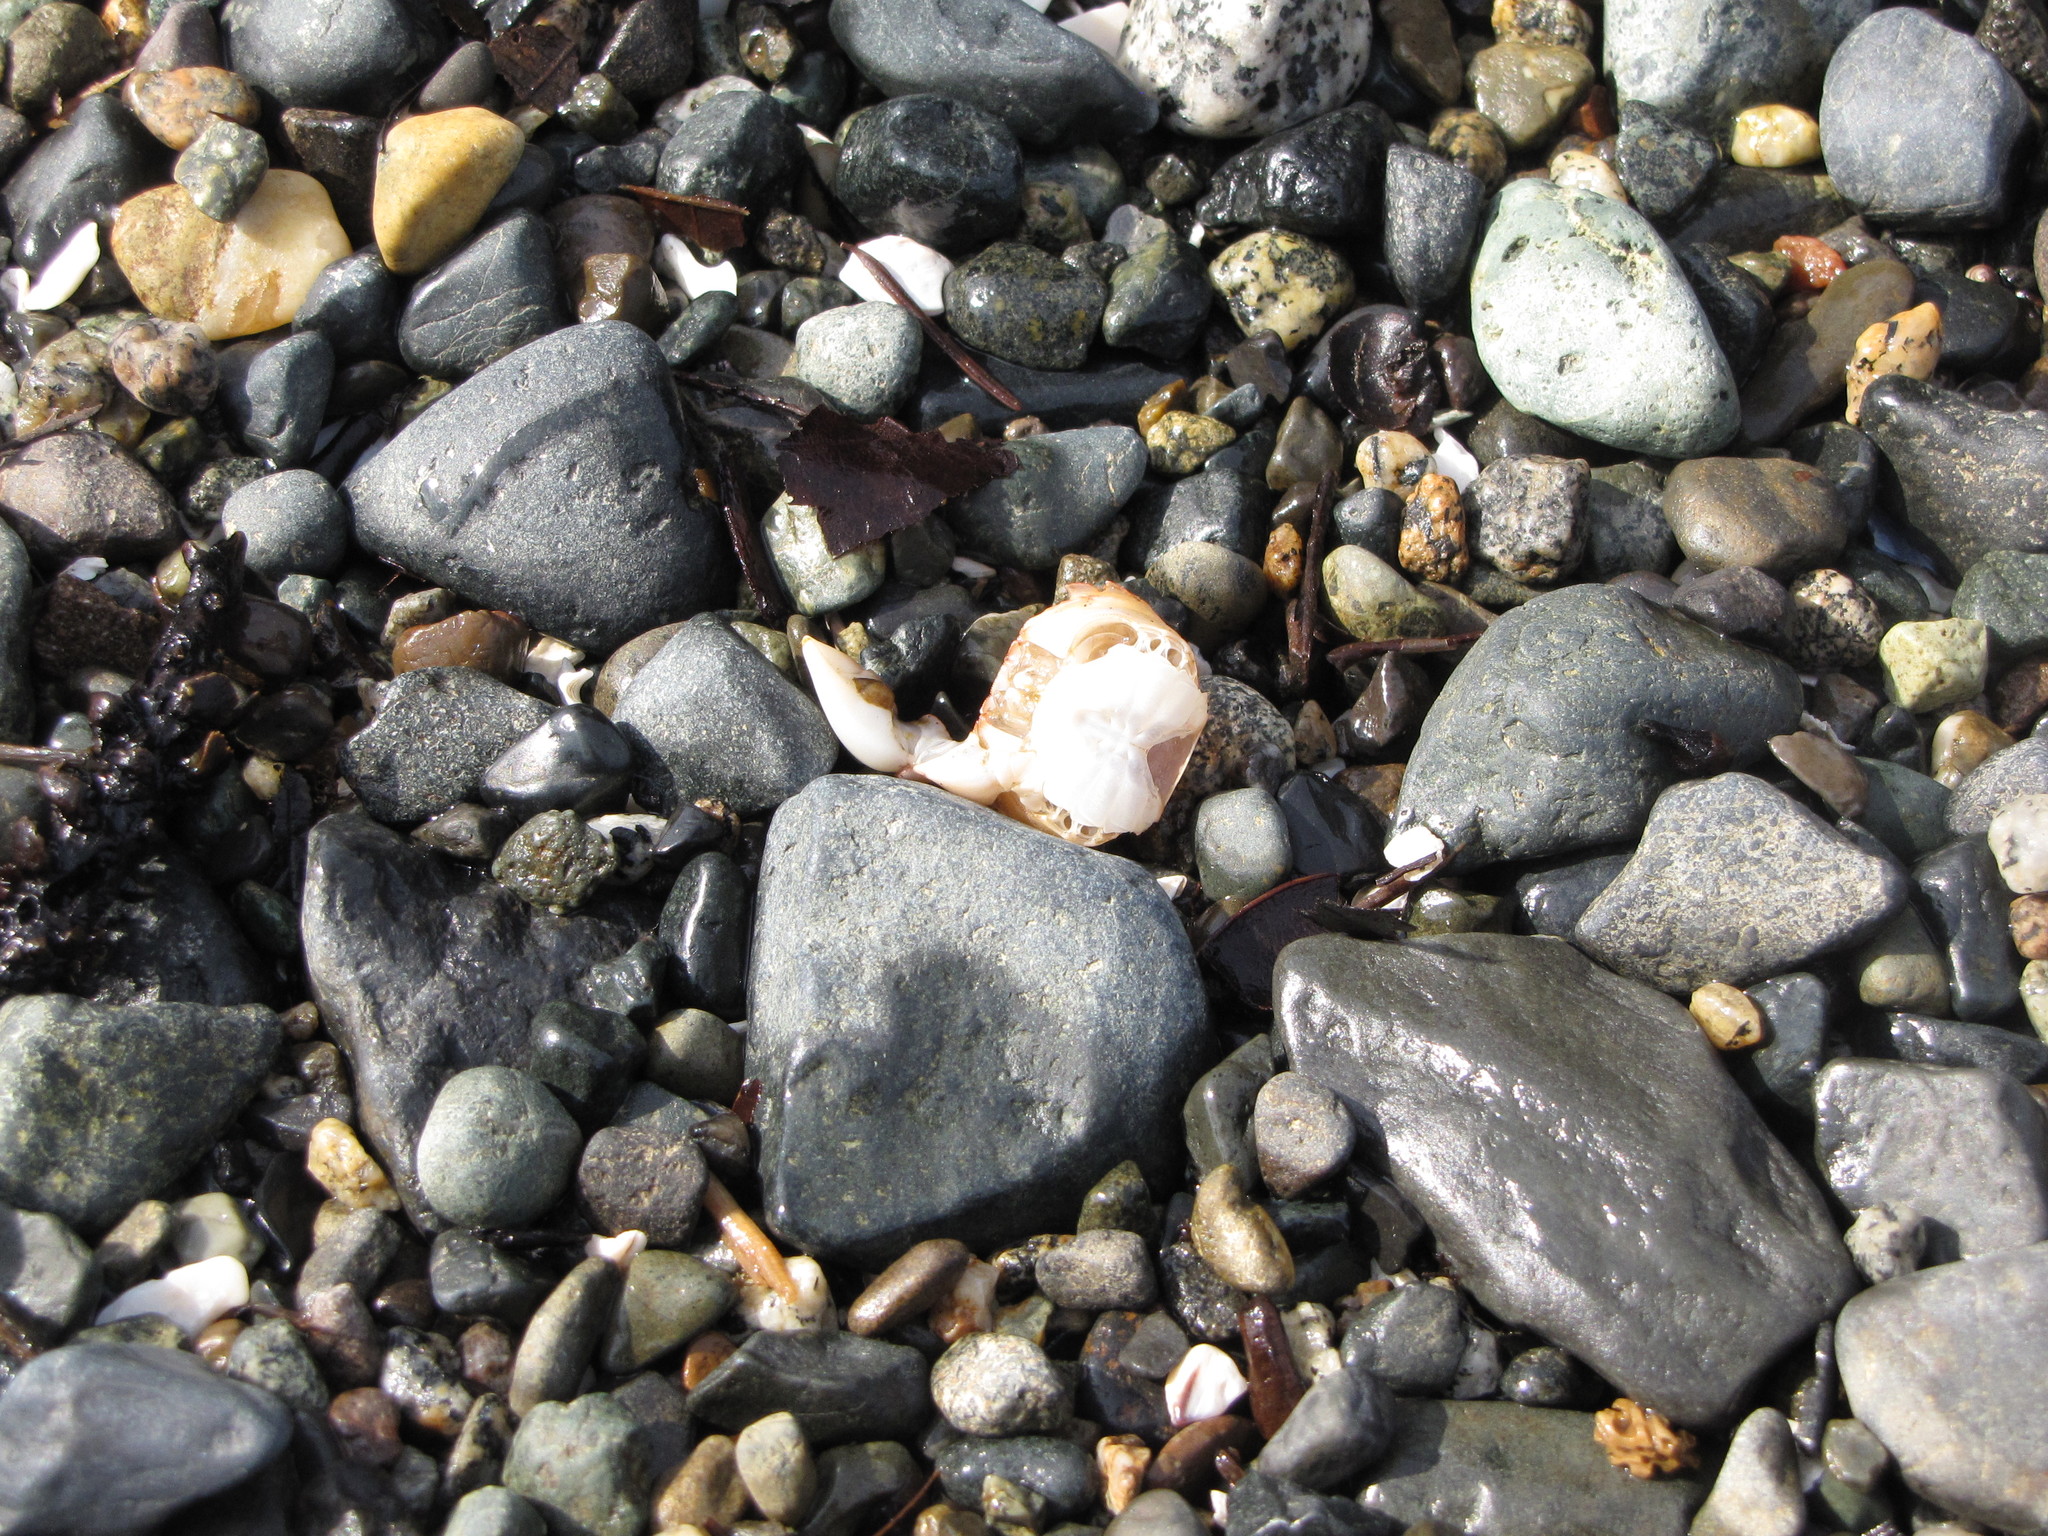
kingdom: Animalia
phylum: Arthropoda
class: Malacostraca
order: Decapoda
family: Varunidae
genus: Hemigrapsus
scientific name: Hemigrapsus oregonensis
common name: Yellow shore crab
